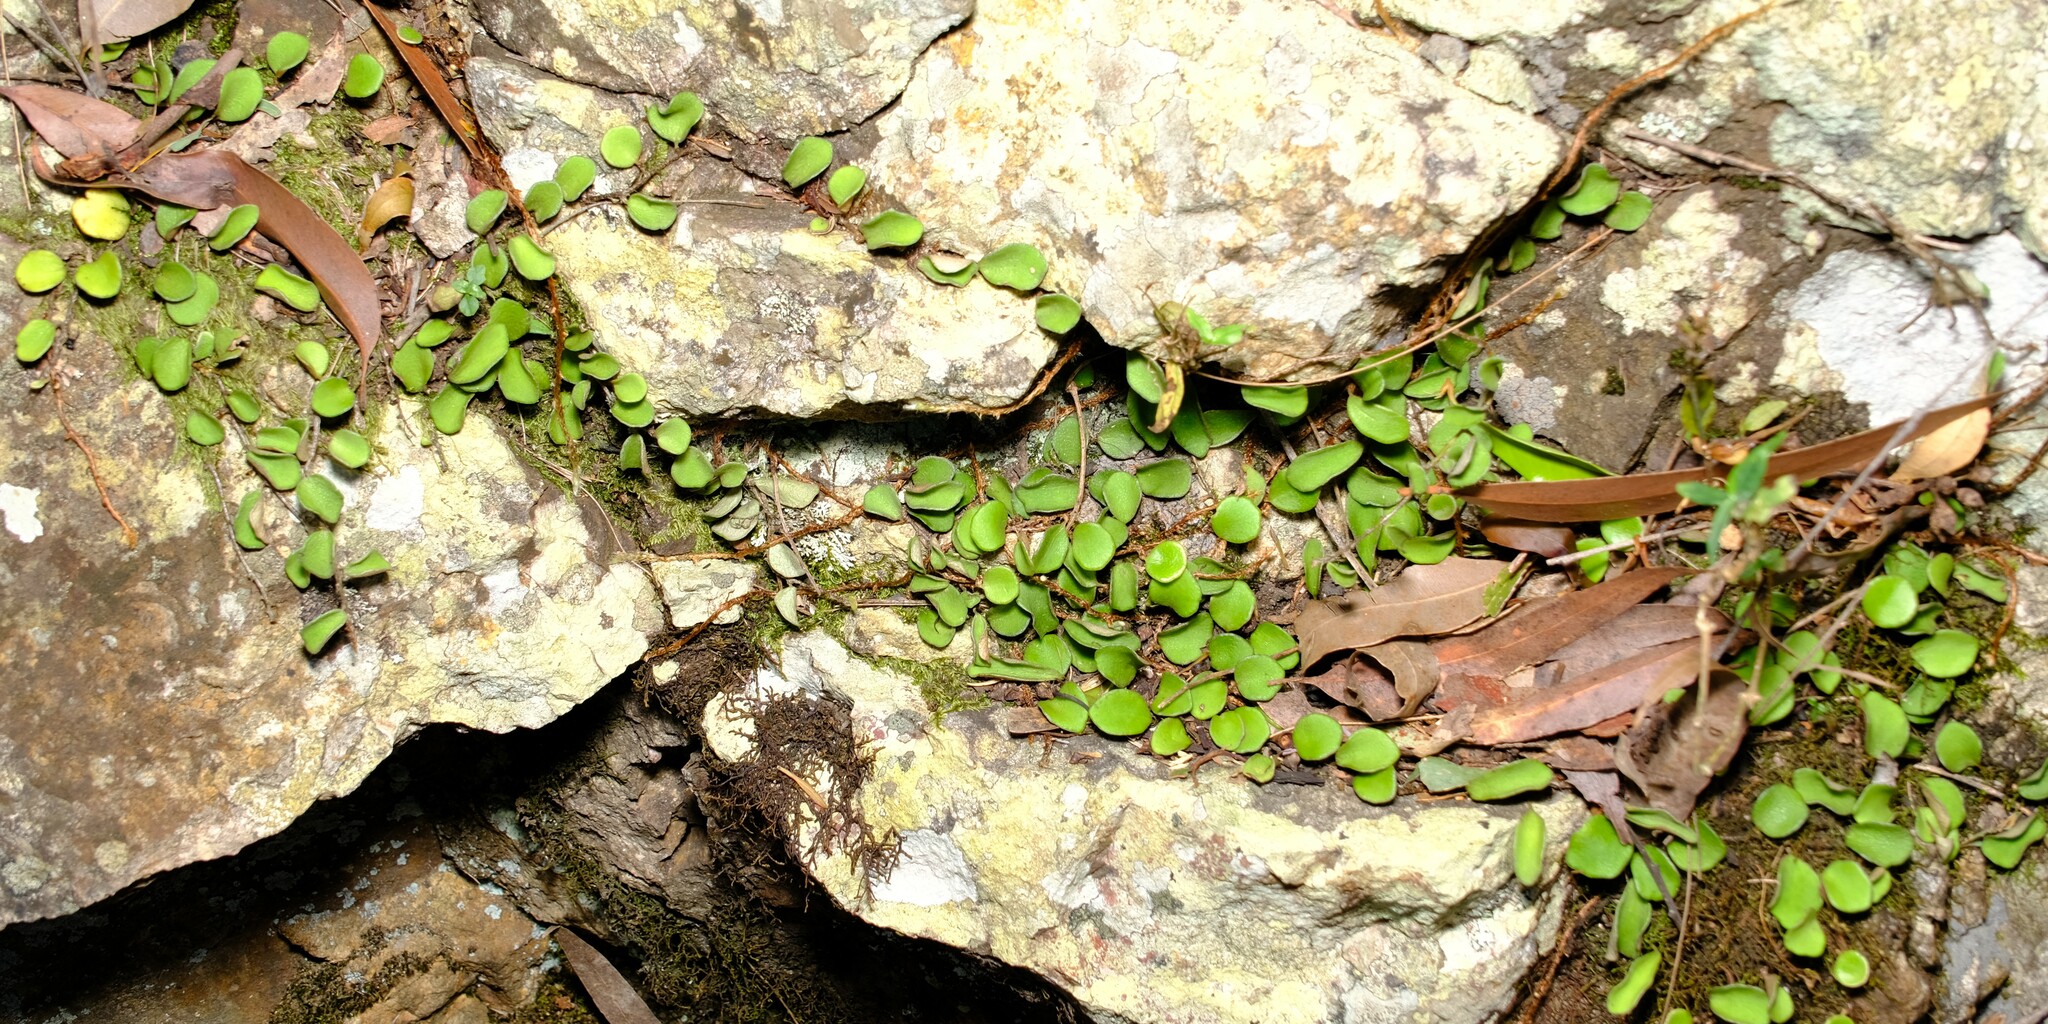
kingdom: Plantae
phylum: Tracheophyta
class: Polypodiopsida
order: Polypodiales
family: Polypodiaceae
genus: Pyrrosia
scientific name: Pyrrosia rupestris
